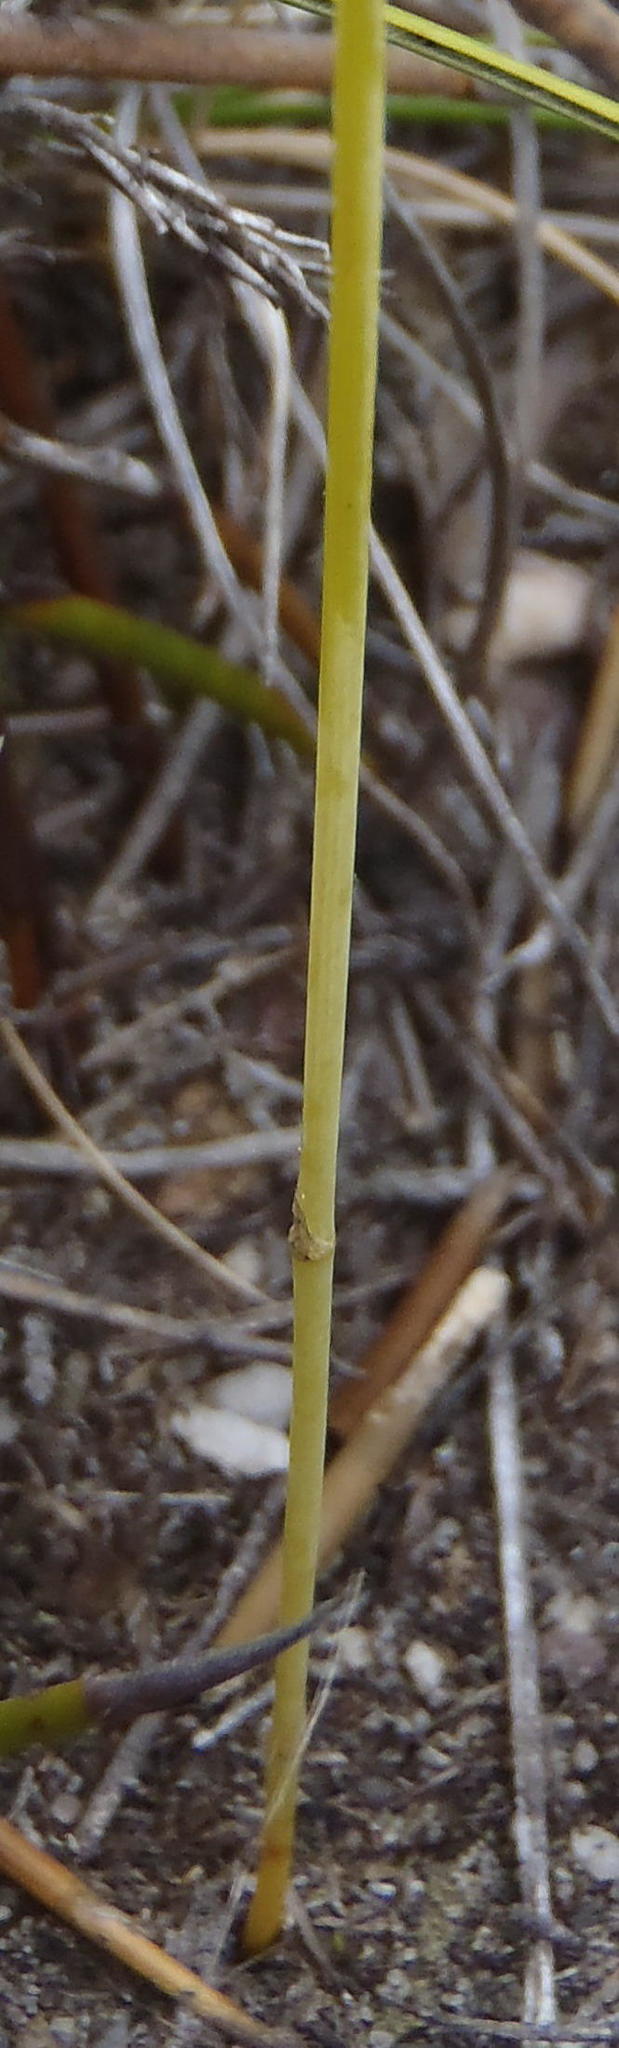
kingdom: Plantae
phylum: Tracheophyta
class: Magnoliopsida
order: Apiales
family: Apiaceae
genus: Chamarea
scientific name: Chamarea capensis
